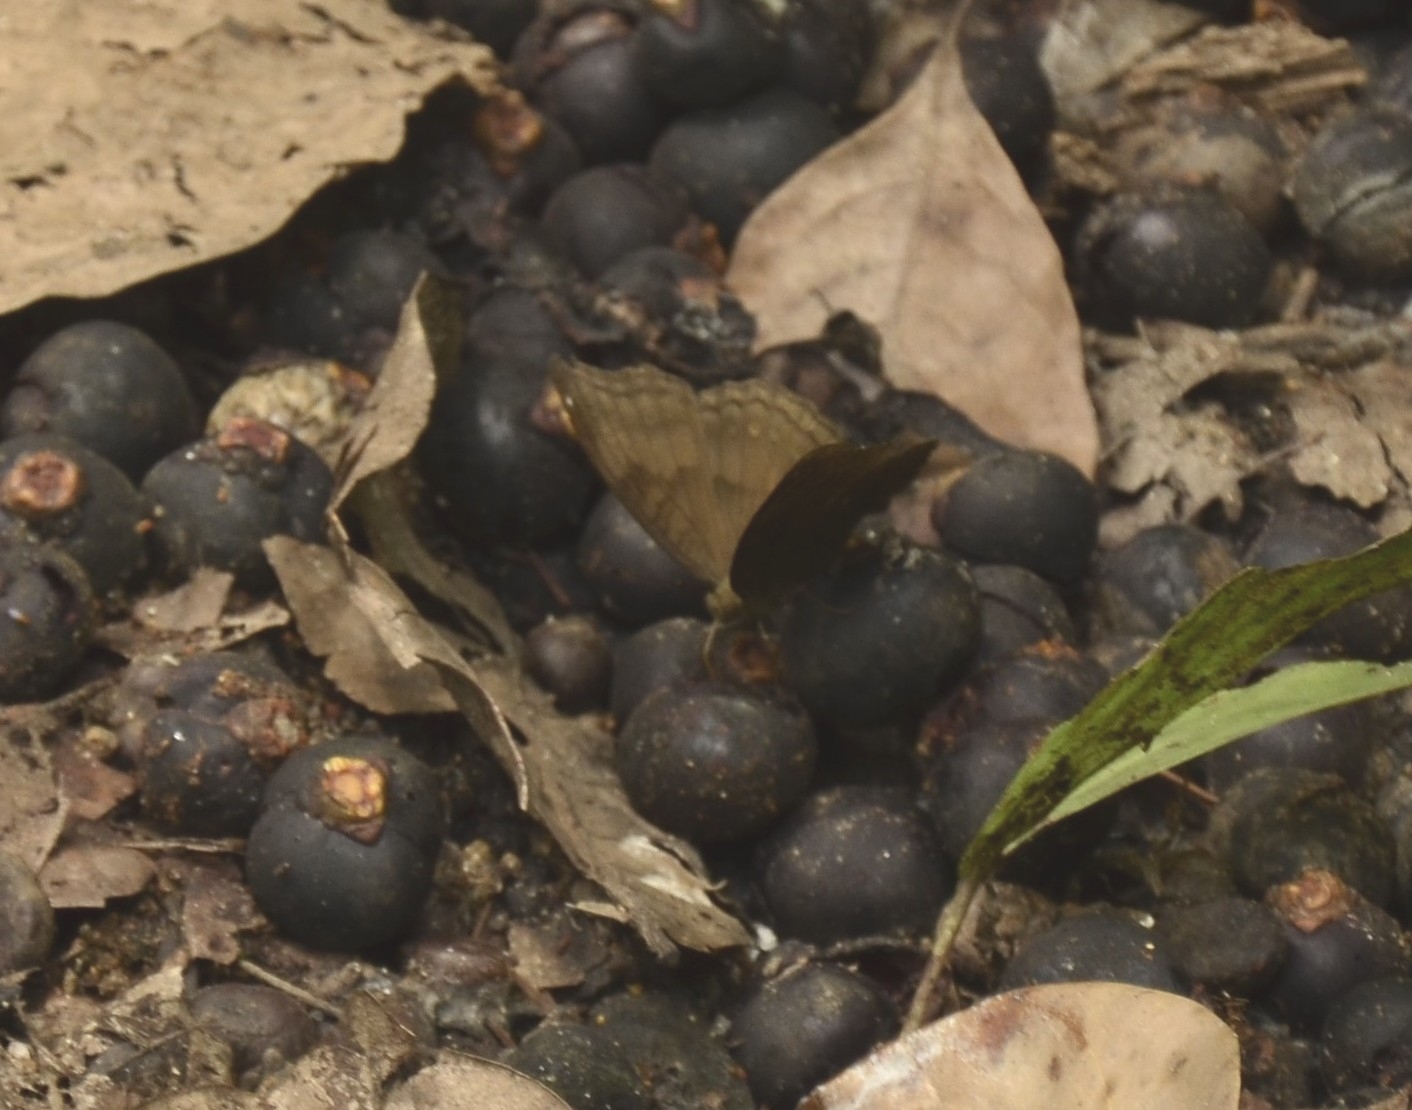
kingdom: Animalia
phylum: Arthropoda
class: Insecta
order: Lepidoptera
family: Nymphalidae
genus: Junonia
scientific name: Junonia iphita
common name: Chocolate pansy
